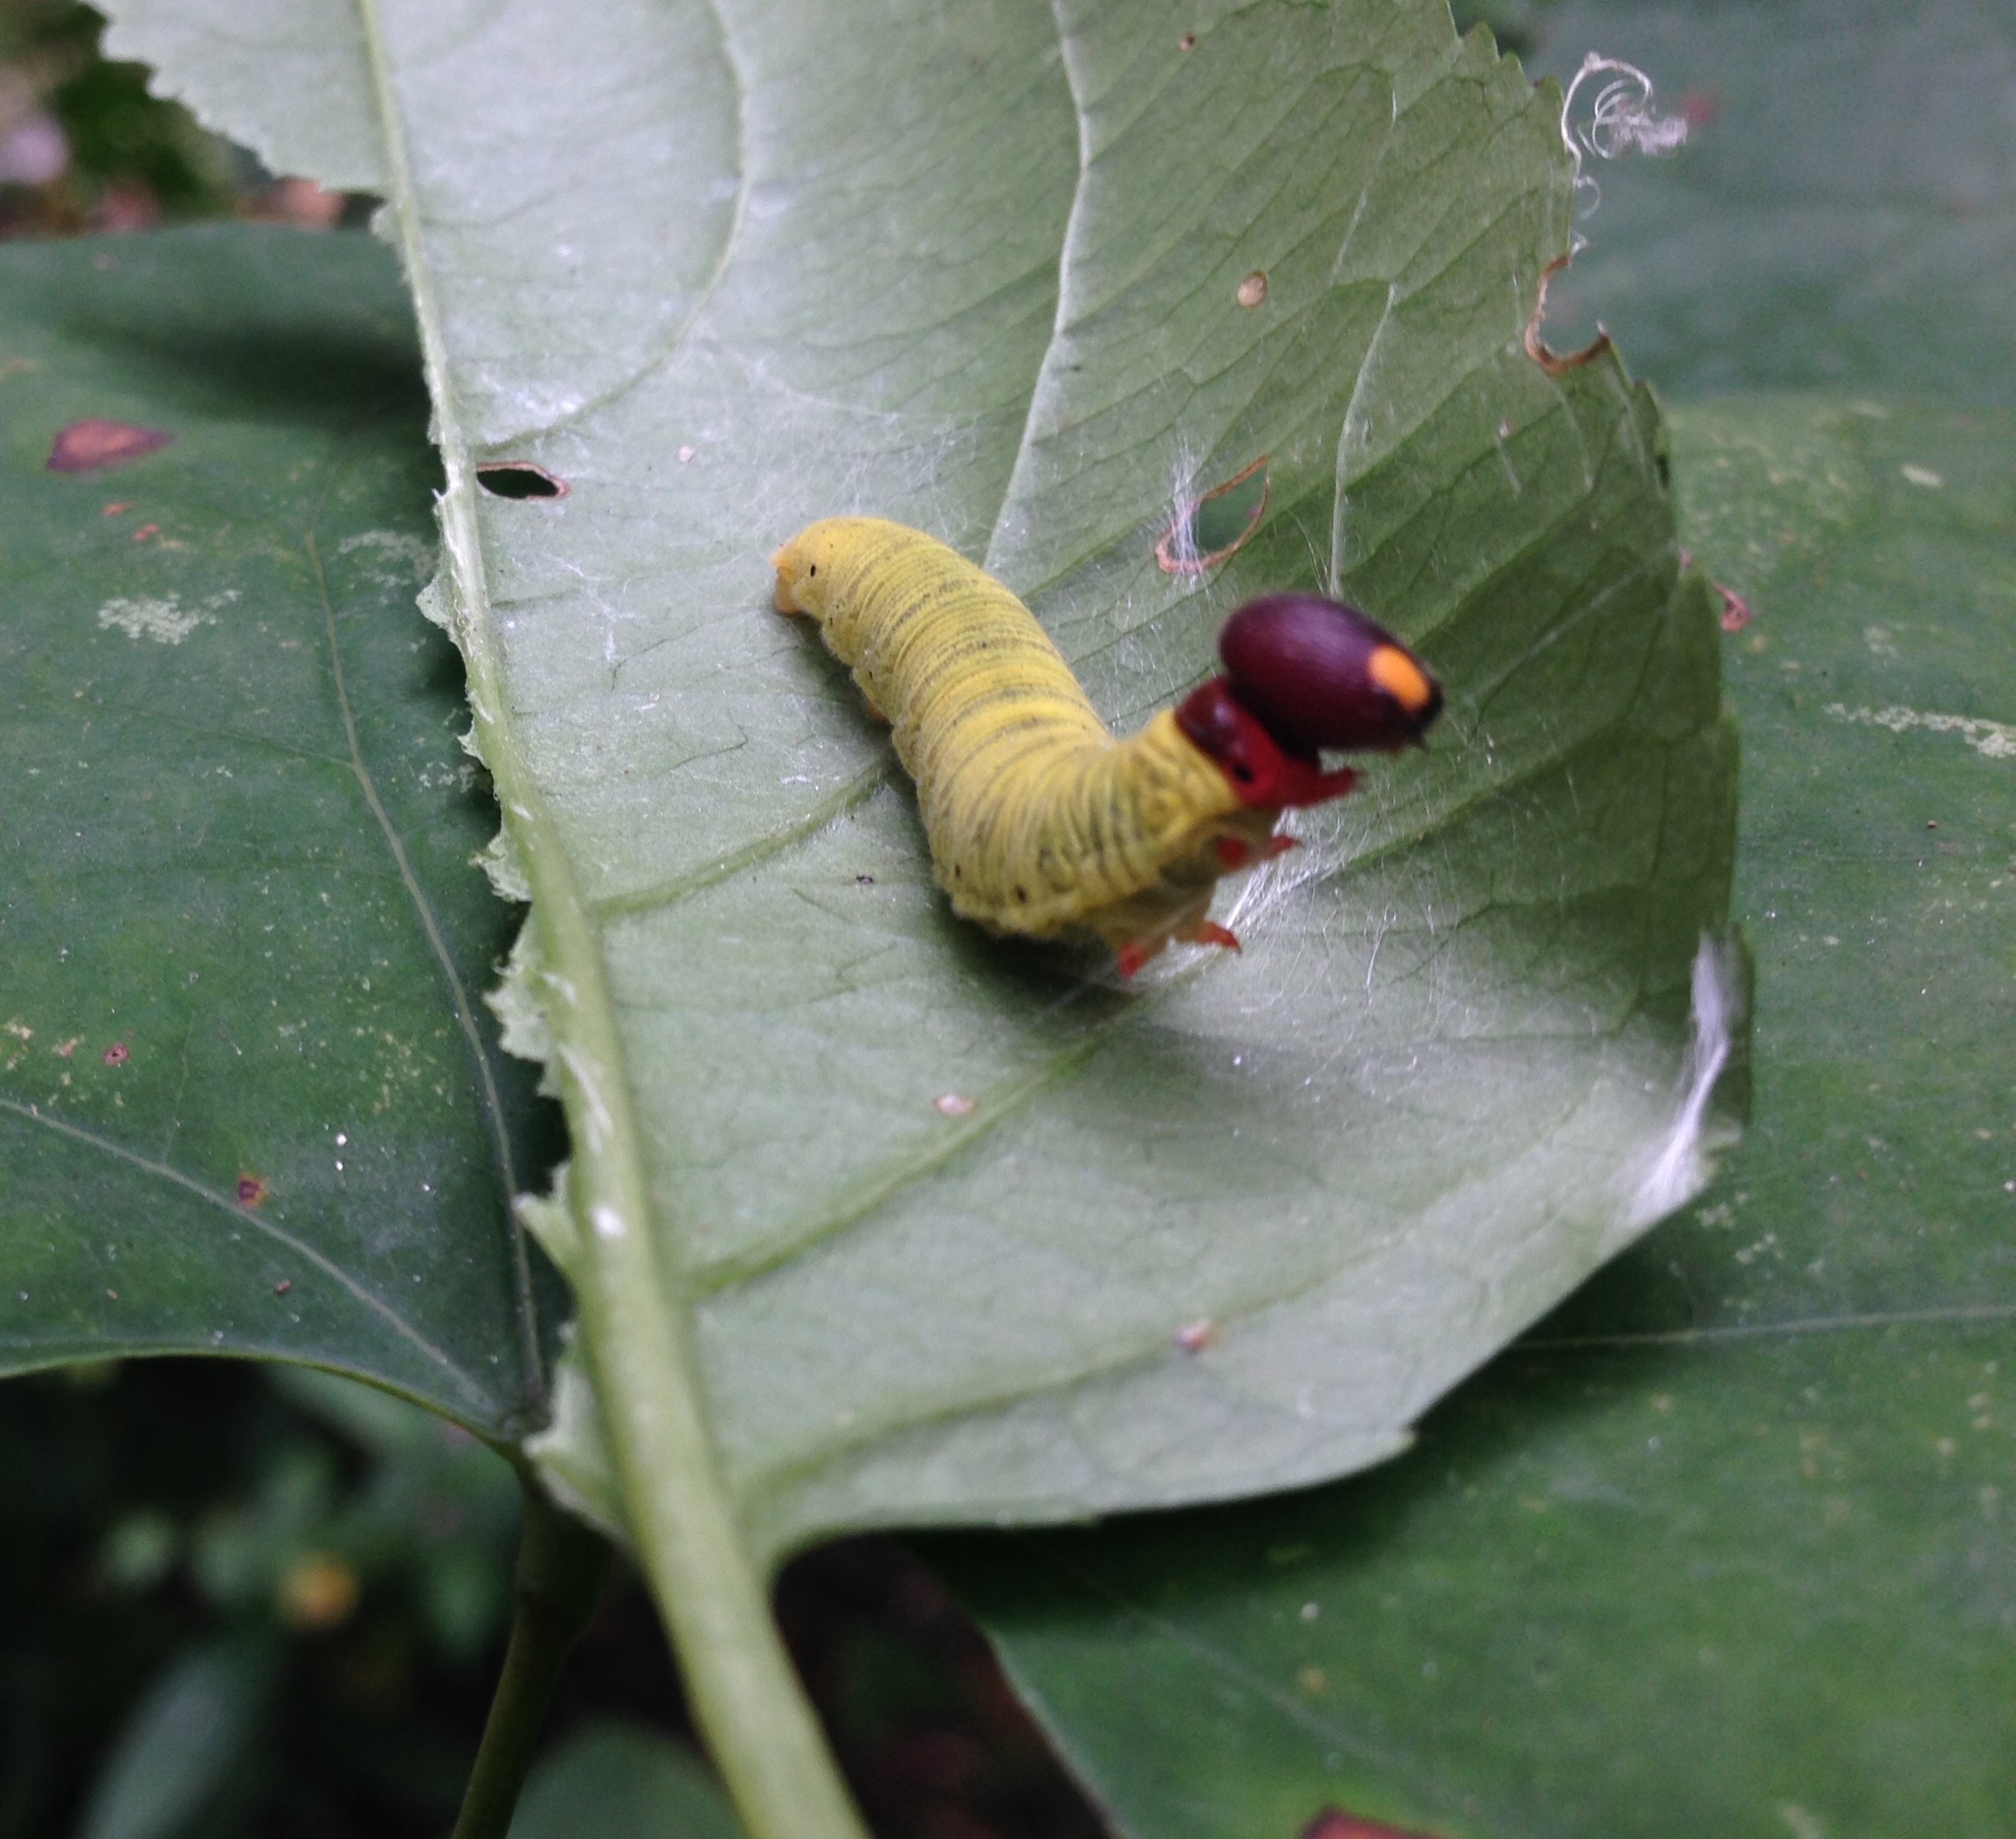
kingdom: Animalia
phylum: Arthropoda
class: Insecta
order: Lepidoptera
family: Hesperiidae
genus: Epargyreus
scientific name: Epargyreus clarus
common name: Silver-spotted skipper
